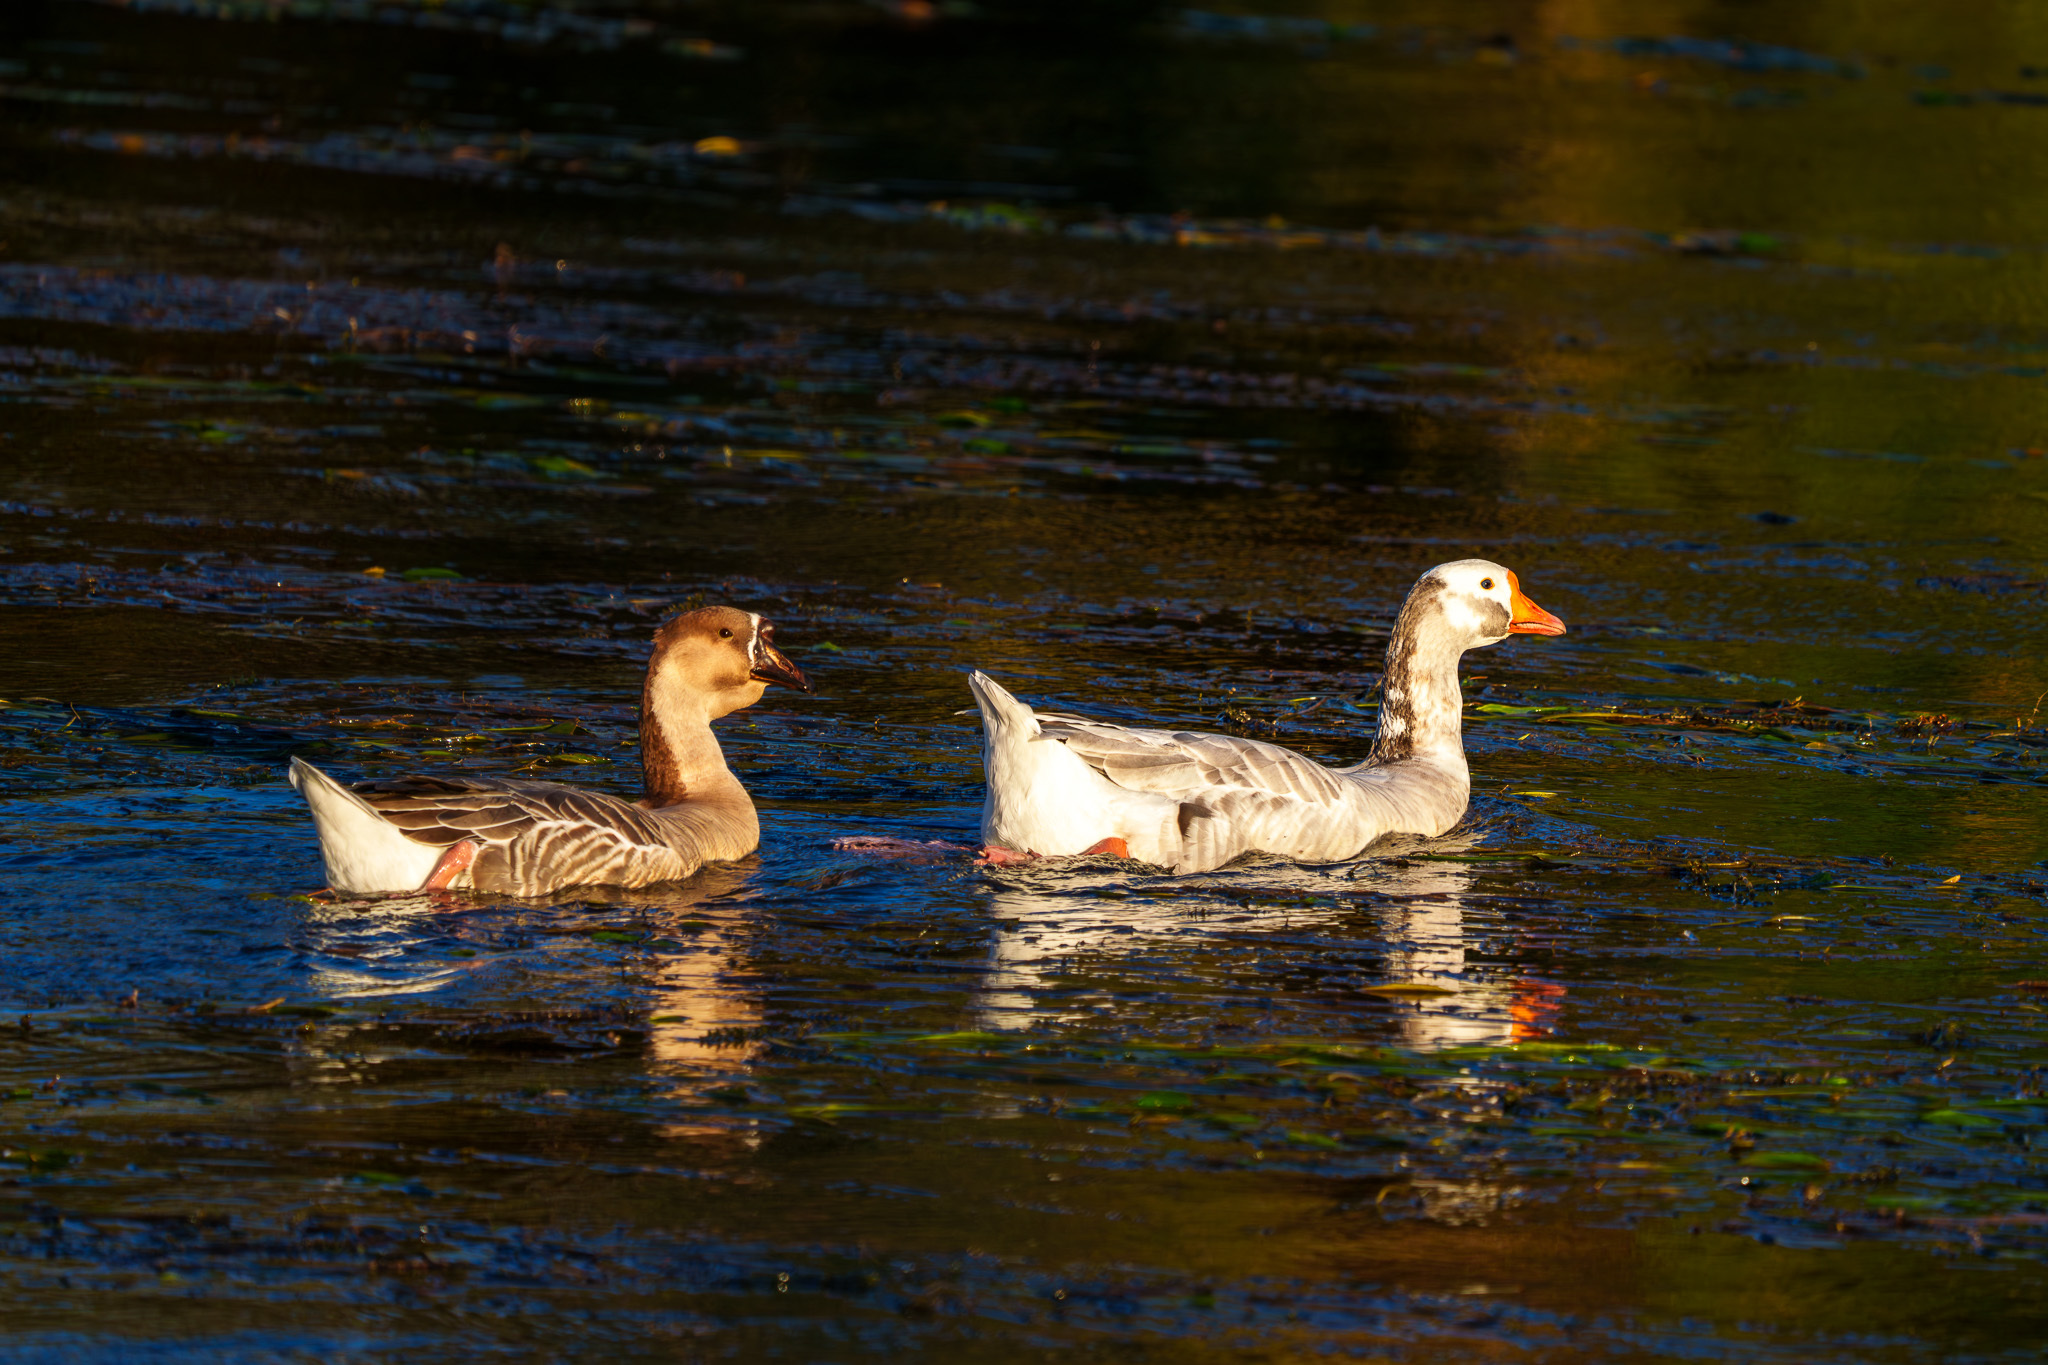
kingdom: Animalia
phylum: Chordata
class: Aves
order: Anseriformes
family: Anatidae
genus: Anser
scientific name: Anser
